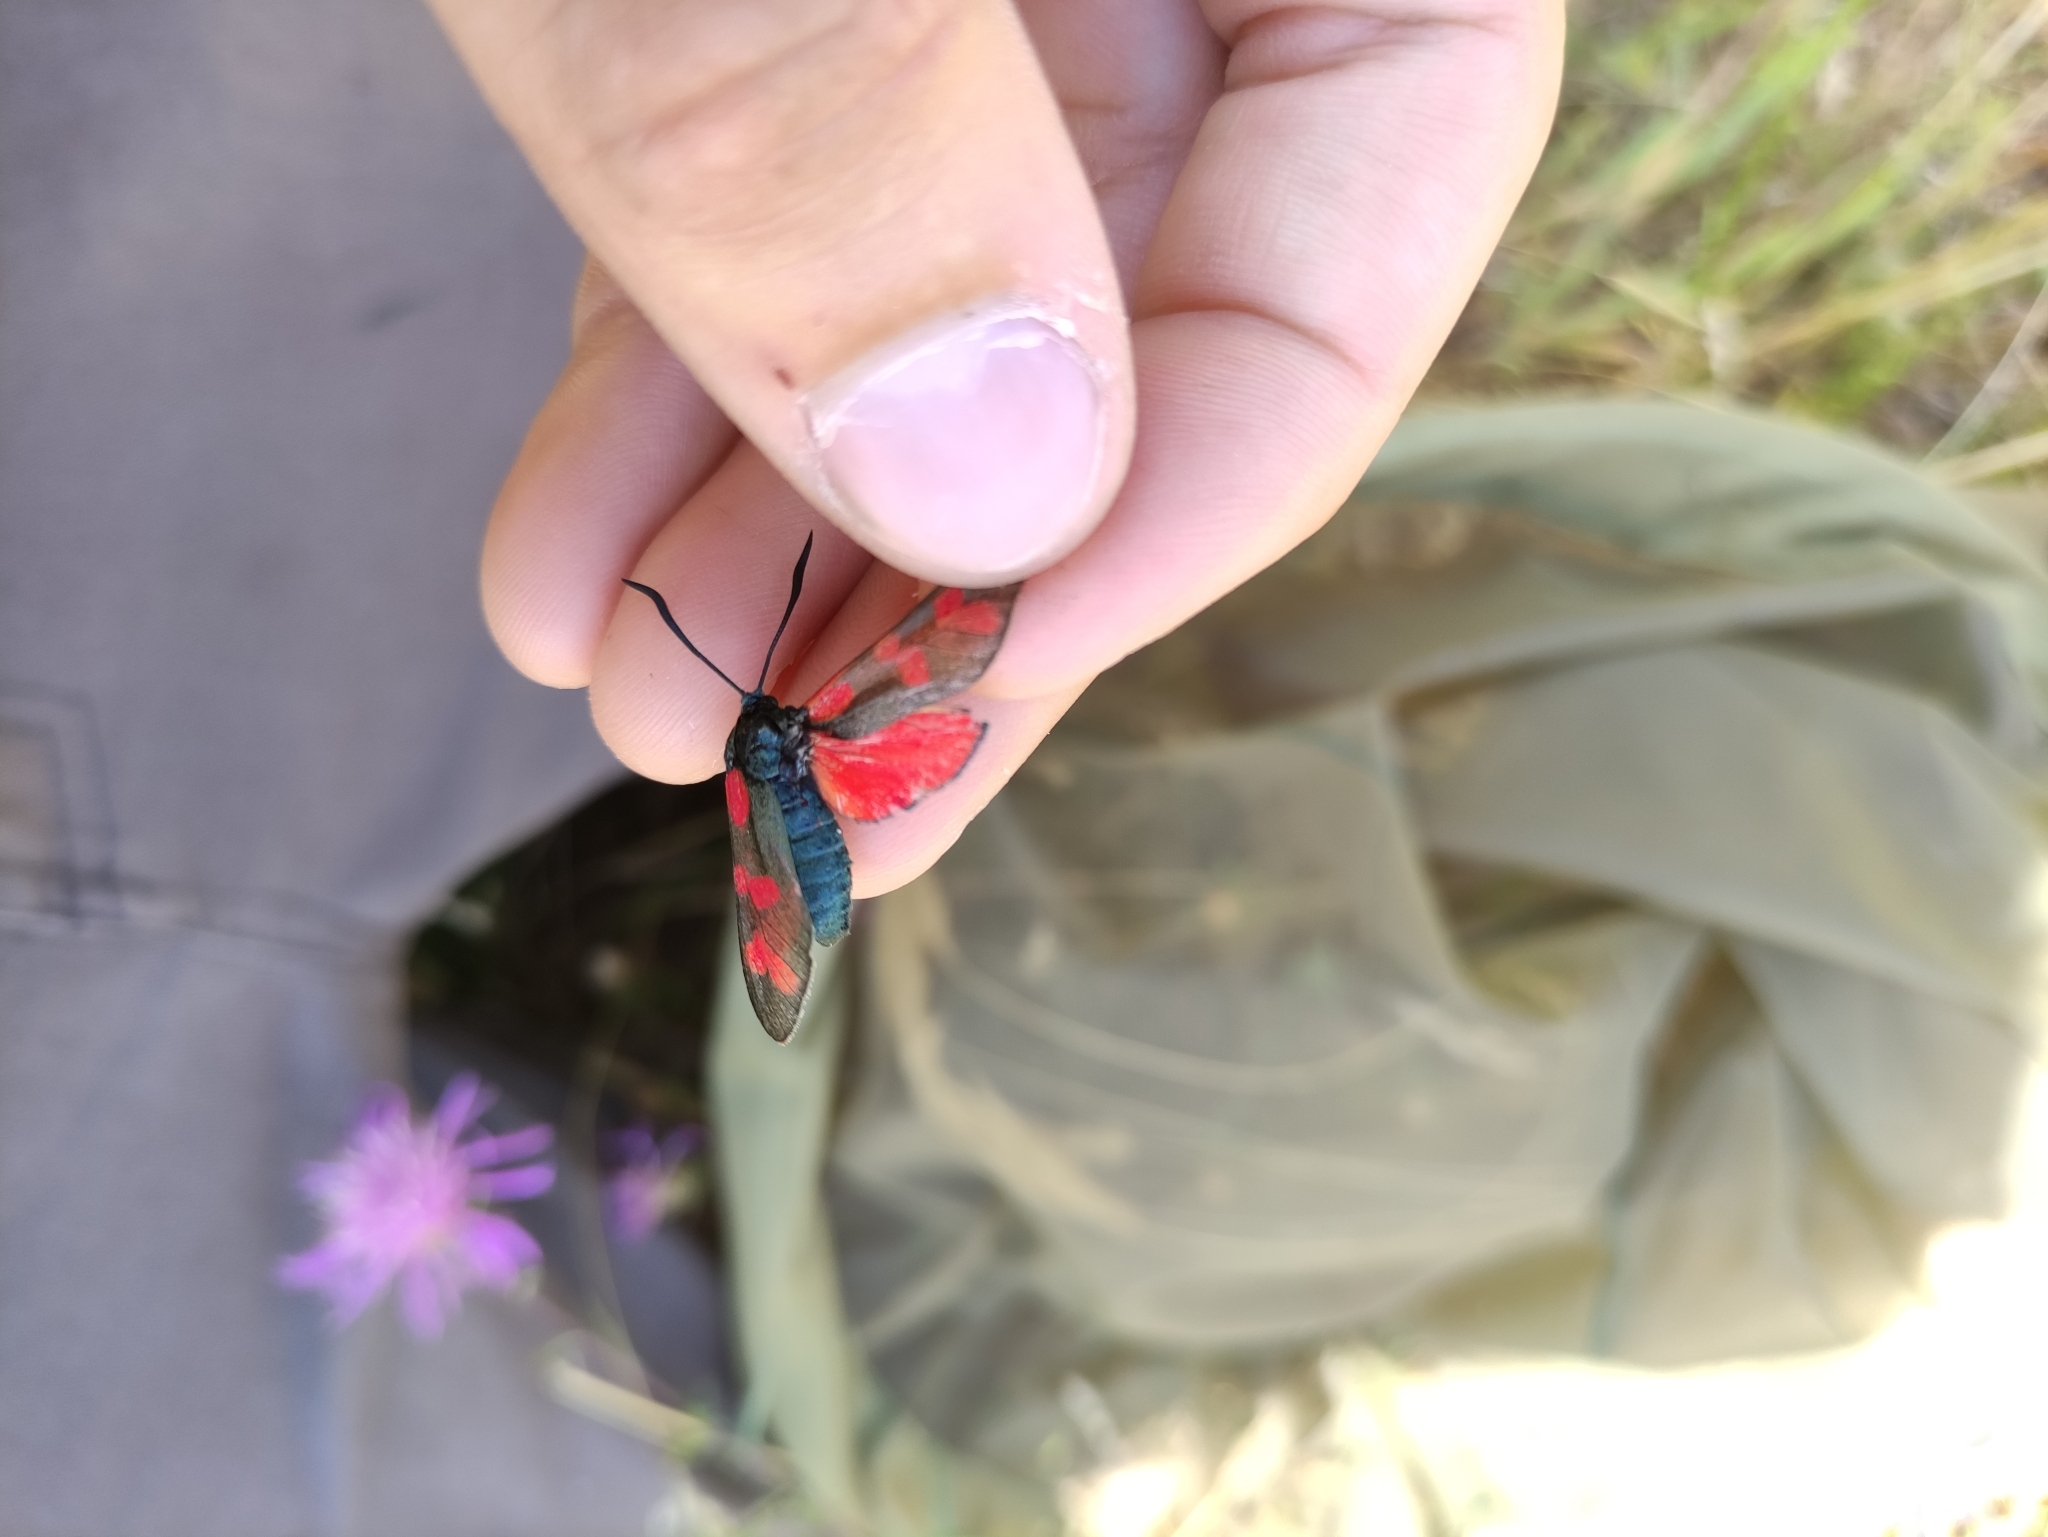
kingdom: Animalia
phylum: Arthropoda
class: Insecta
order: Lepidoptera
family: Zygaenidae
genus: Zygaena
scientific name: Zygaena filipendulae
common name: Six-spot burnet
